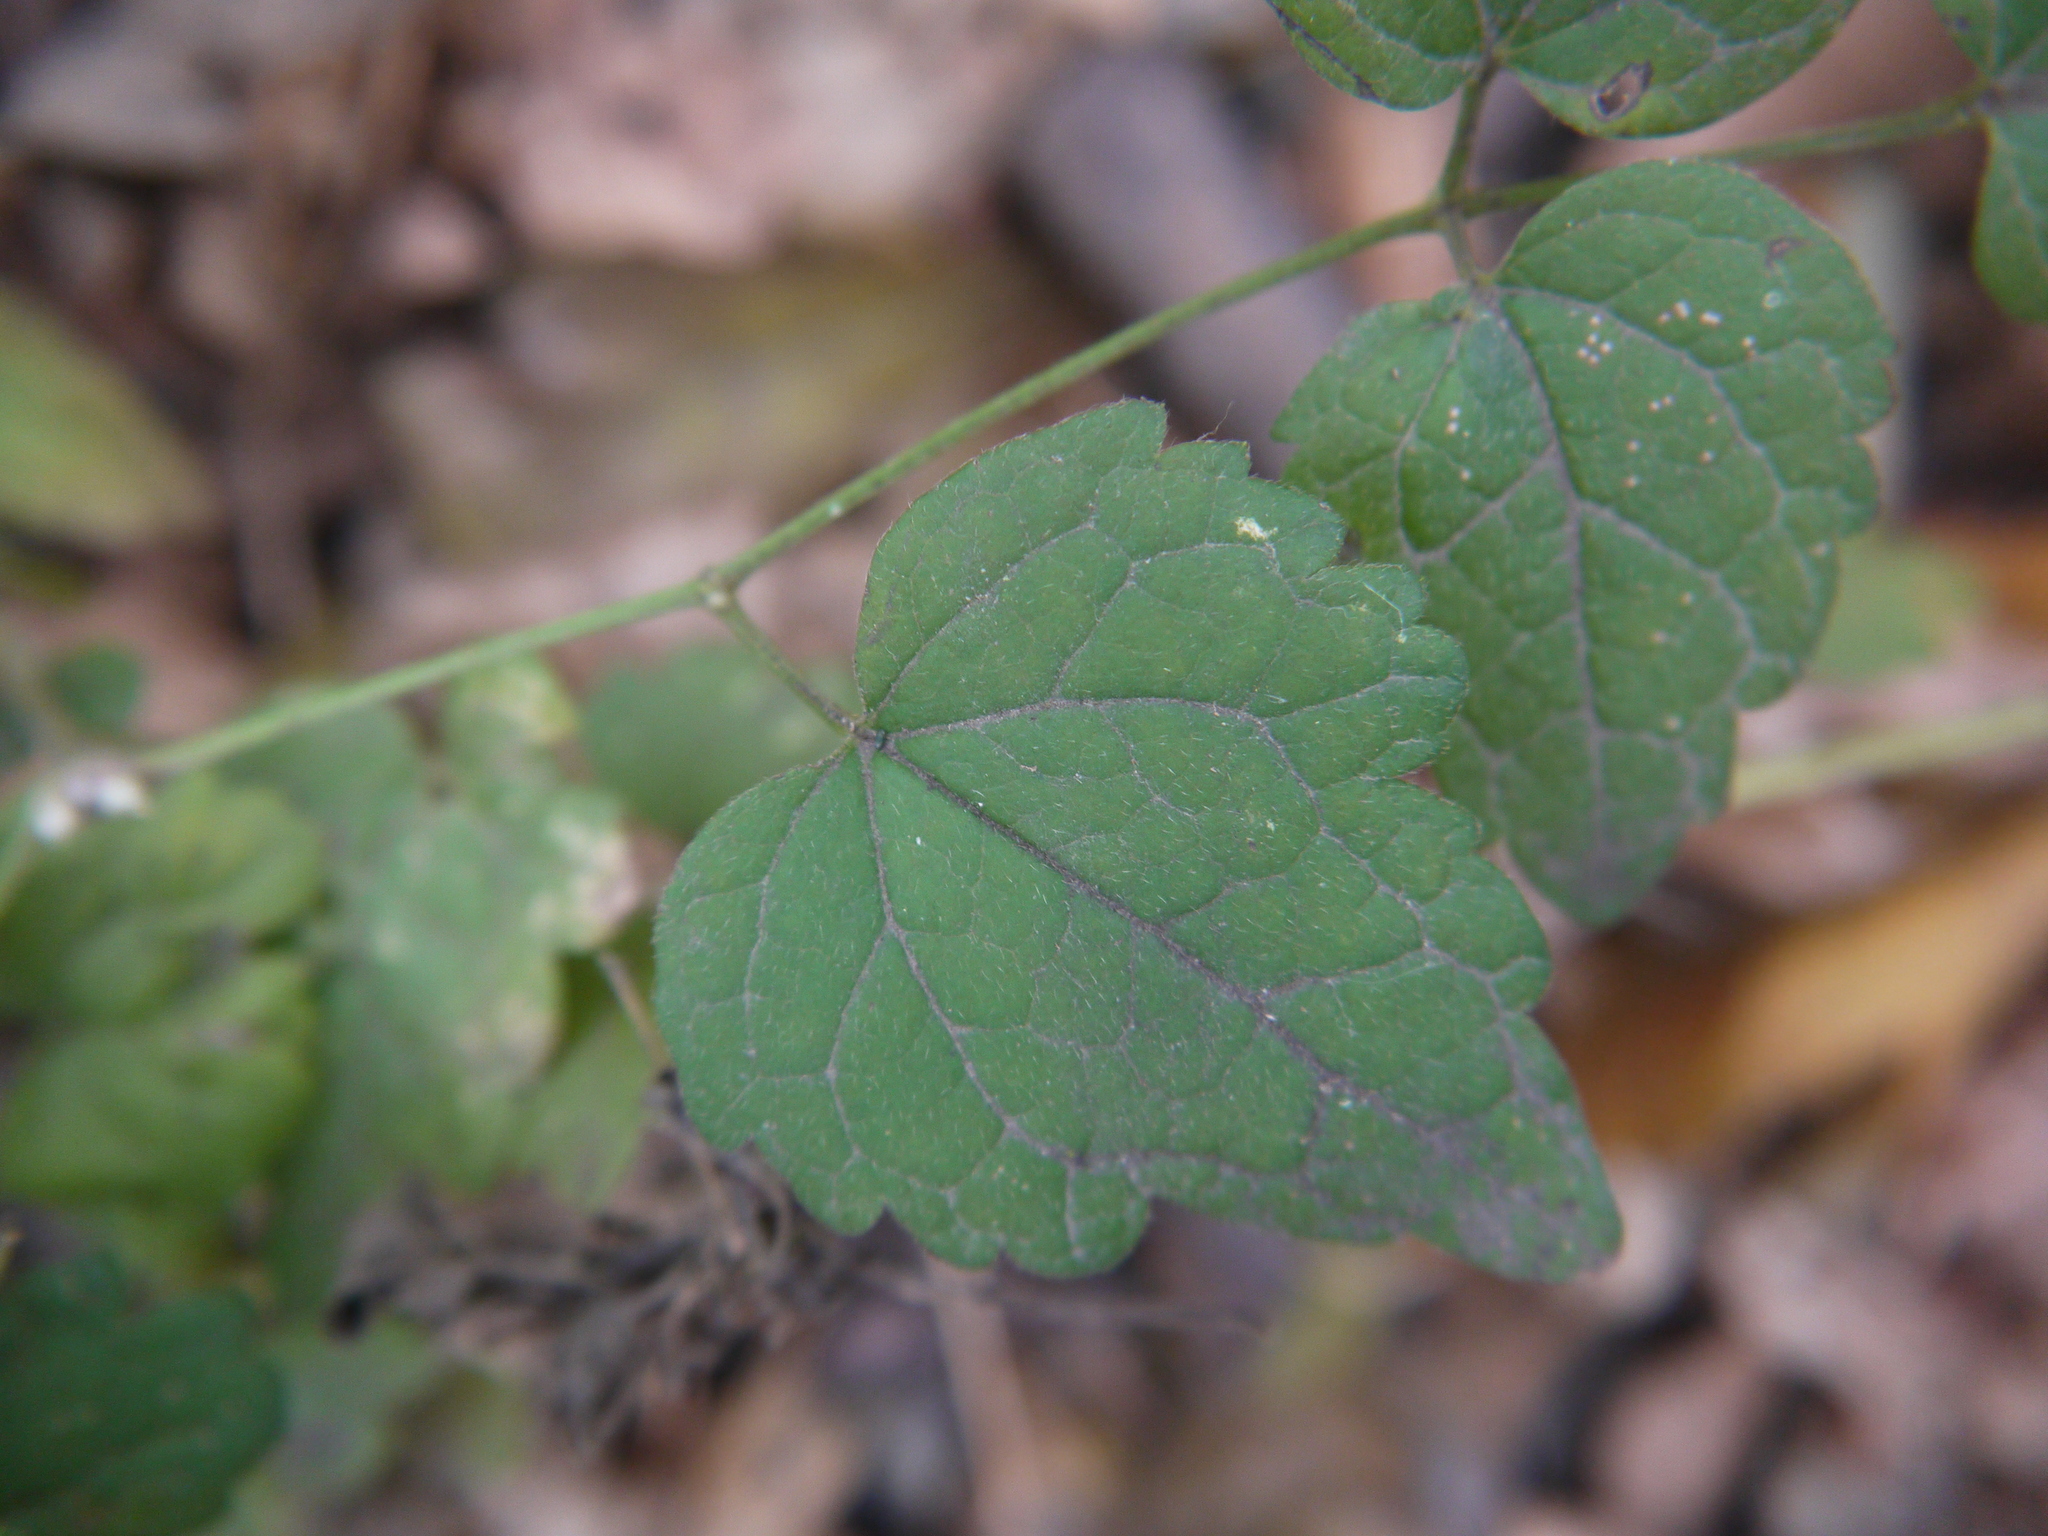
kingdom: Plantae
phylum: Tracheophyta
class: Magnoliopsida
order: Ranunculales
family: Ranunculaceae
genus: Clematis
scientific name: Clematis vitalba
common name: Evergreen clematis
